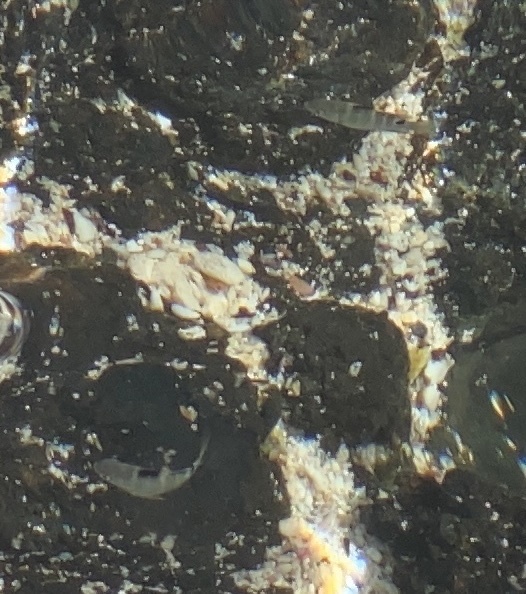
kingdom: Animalia
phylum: Chordata
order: Perciformes
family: Pomacentridae
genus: Abudefduf
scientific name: Abudefduf sordidus
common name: Blackspot sergeant
